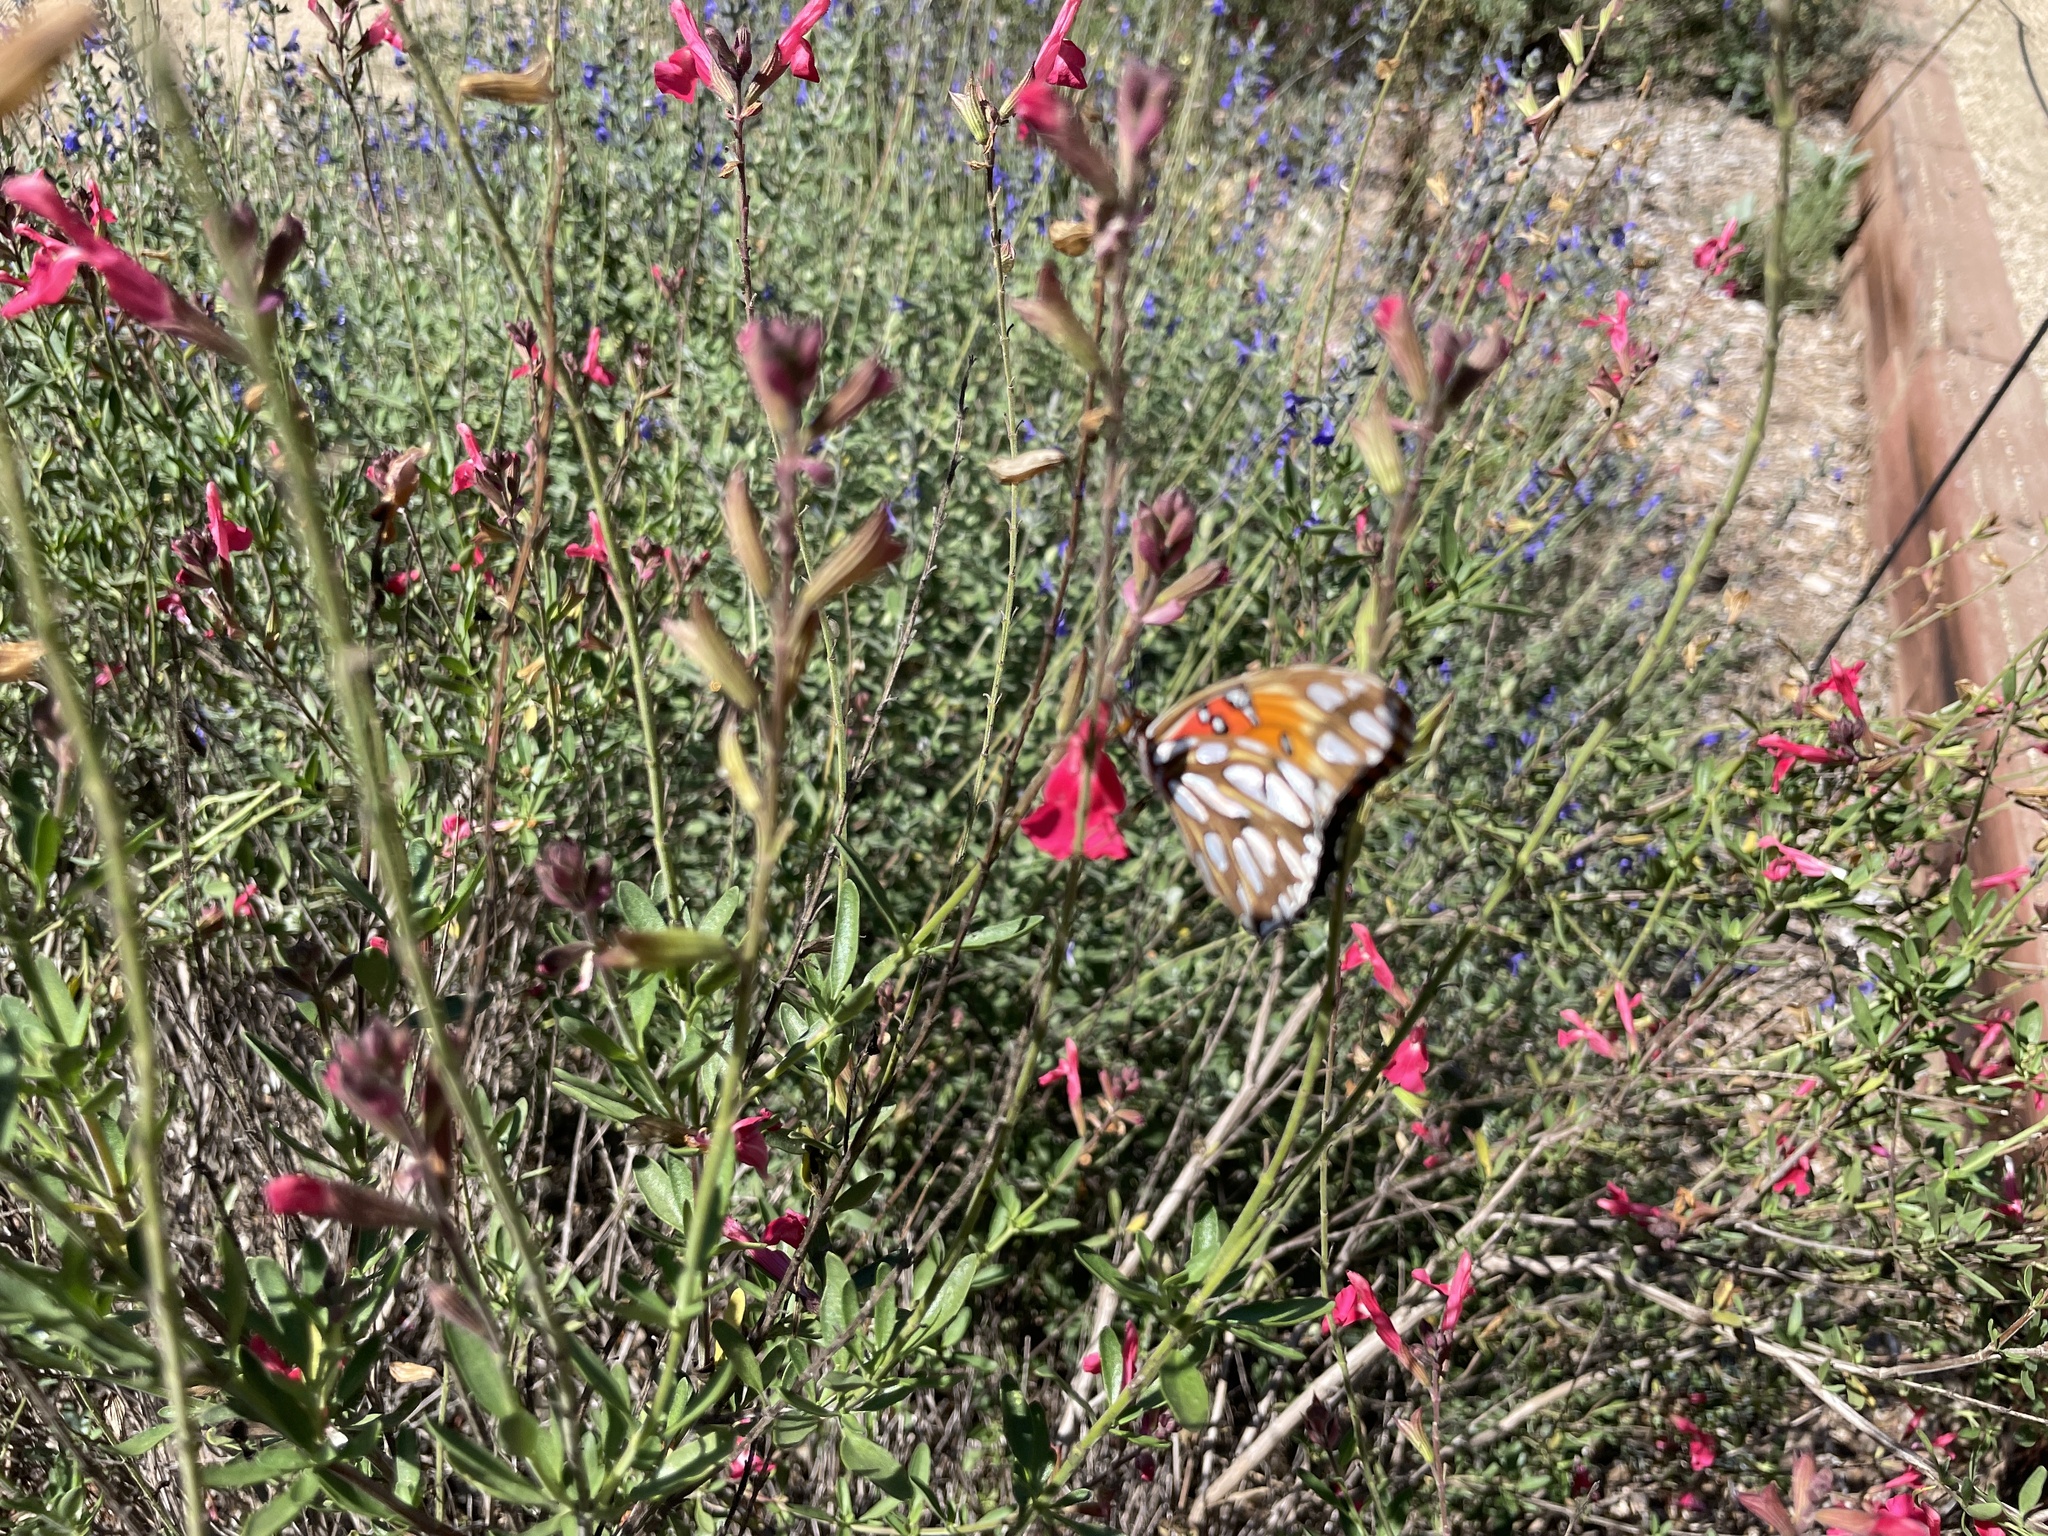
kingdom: Animalia
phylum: Arthropoda
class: Insecta
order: Lepidoptera
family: Nymphalidae
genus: Dione
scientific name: Dione vanillae
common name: Gulf fritillary
